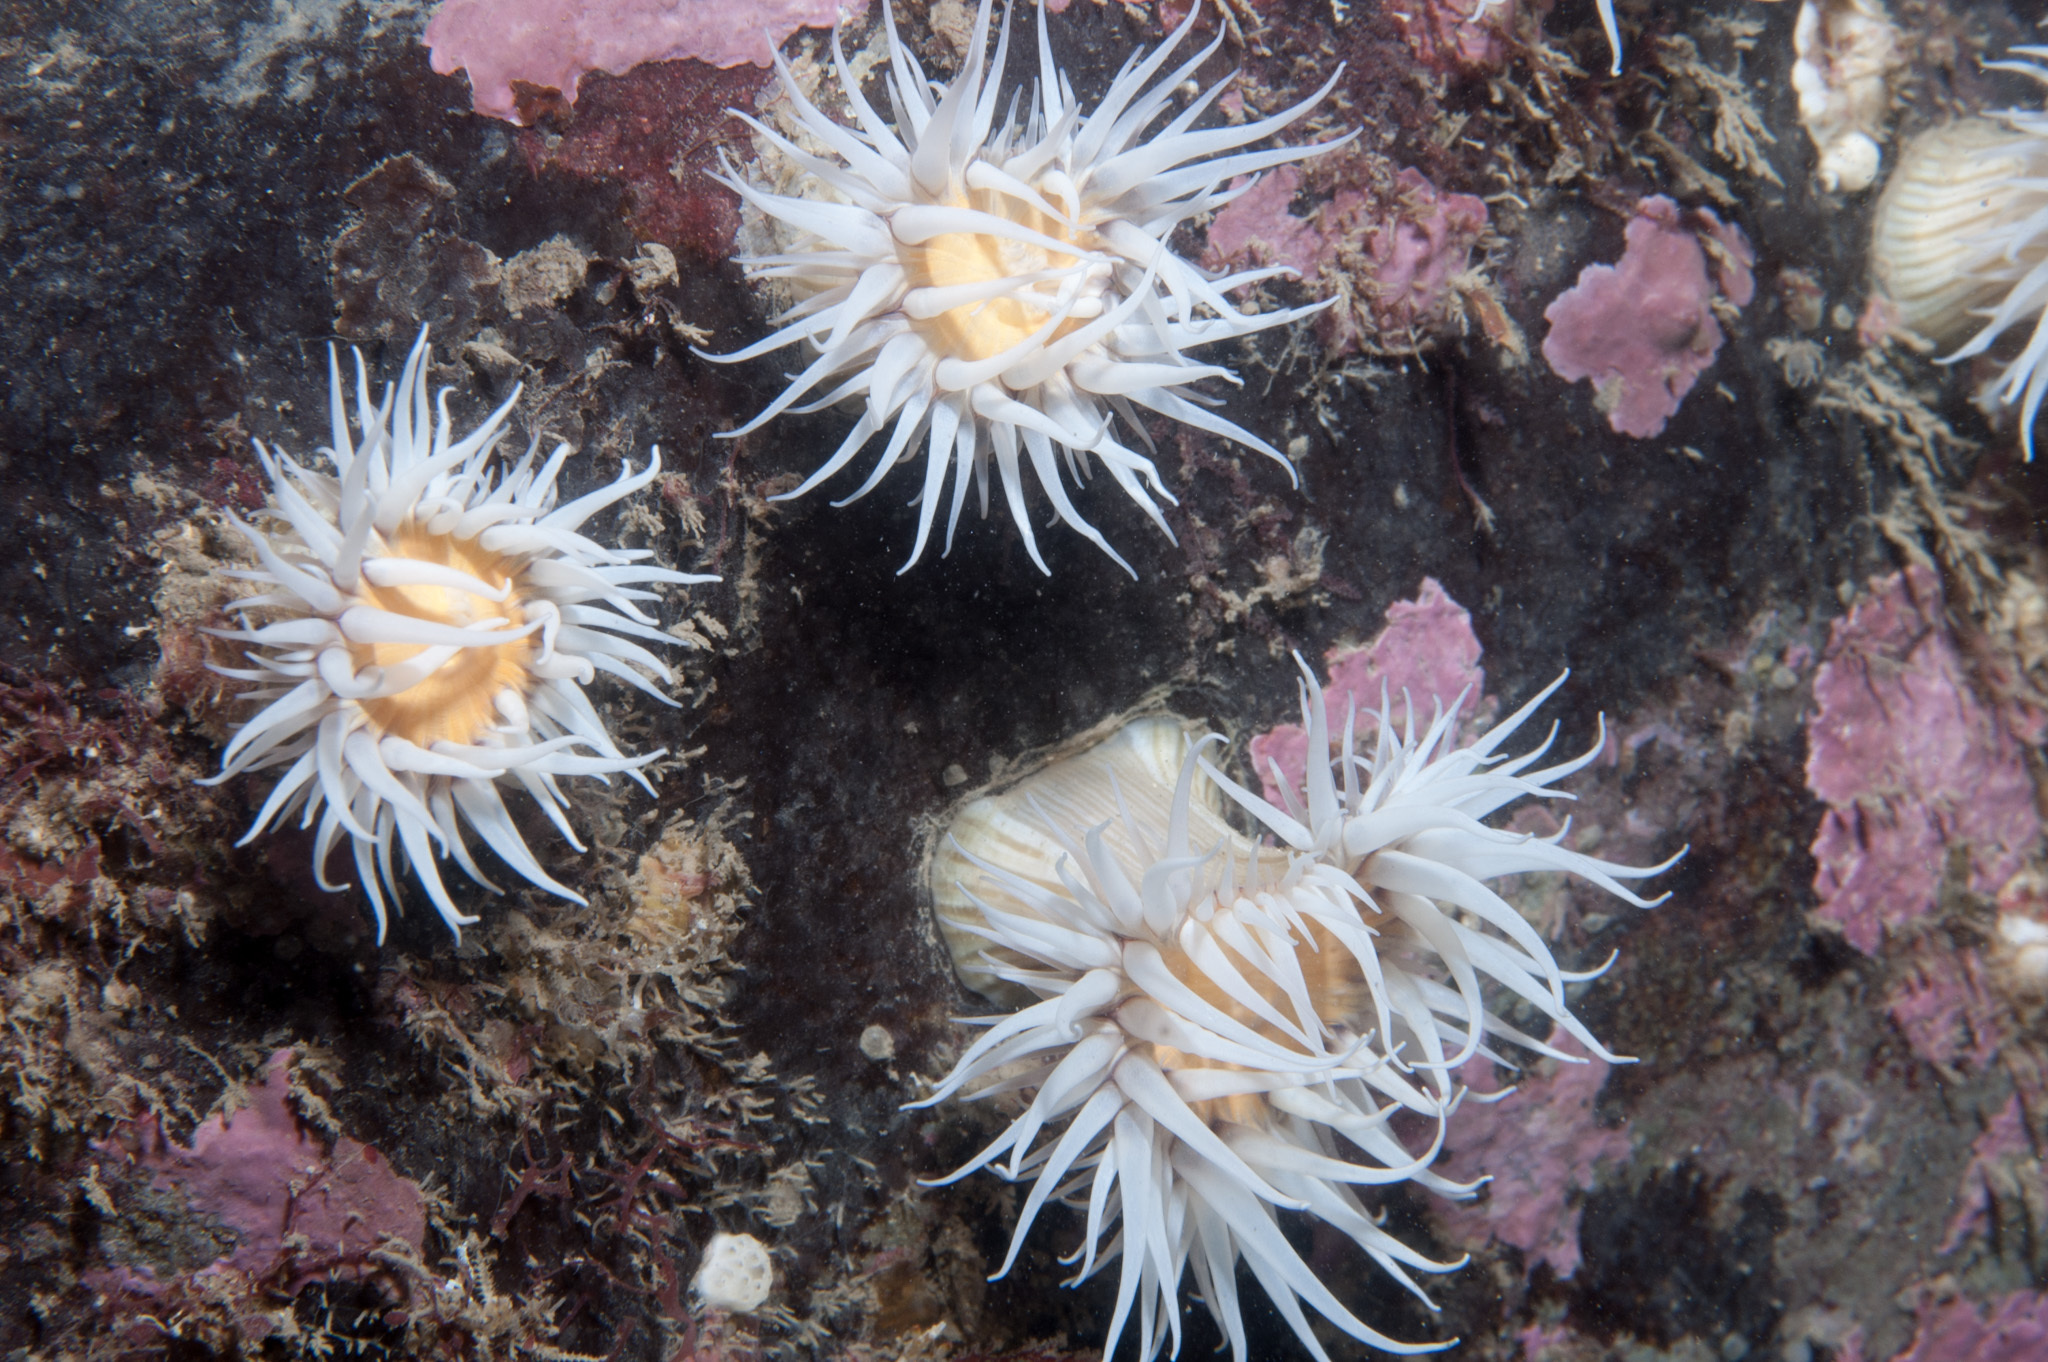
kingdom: Animalia
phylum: Cnidaria
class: Anthozoa
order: Actiniaria
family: Sagartiidae
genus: Actinothoe
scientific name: Actinothoe sphyrodeta
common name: Sandalled anemone
